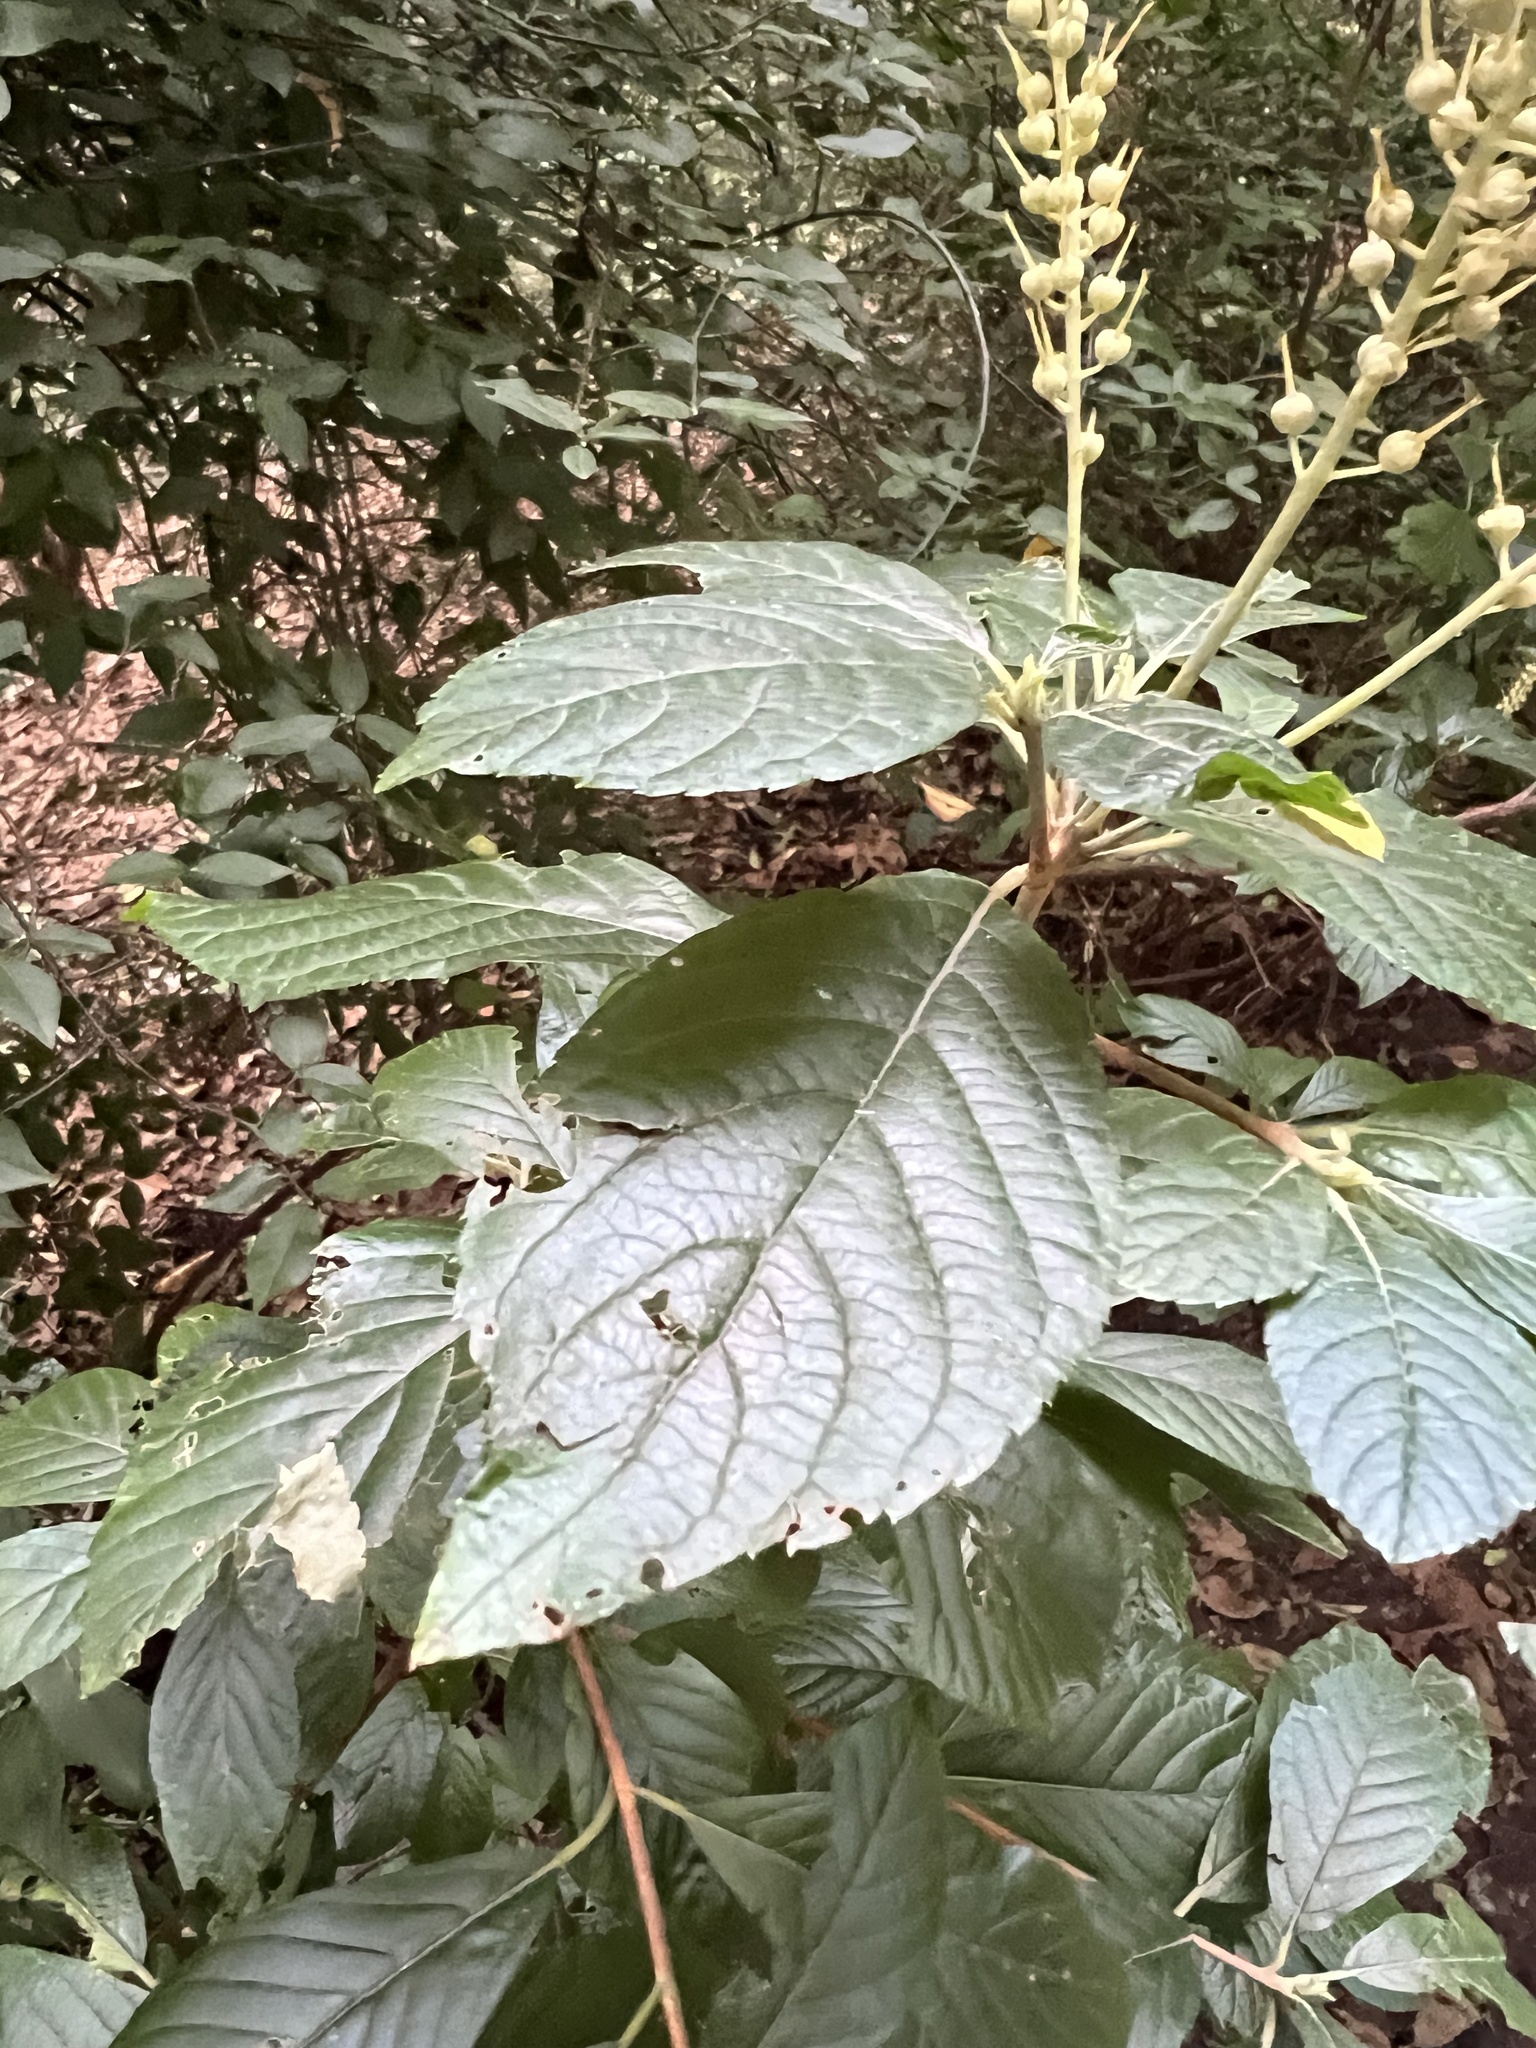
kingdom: Plantae
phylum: Tracheophyta
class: Magnoliopsida
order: Ericales
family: Clethraceae
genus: Clethra
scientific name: Clethra alnifolia
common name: Sweet pepperbush
